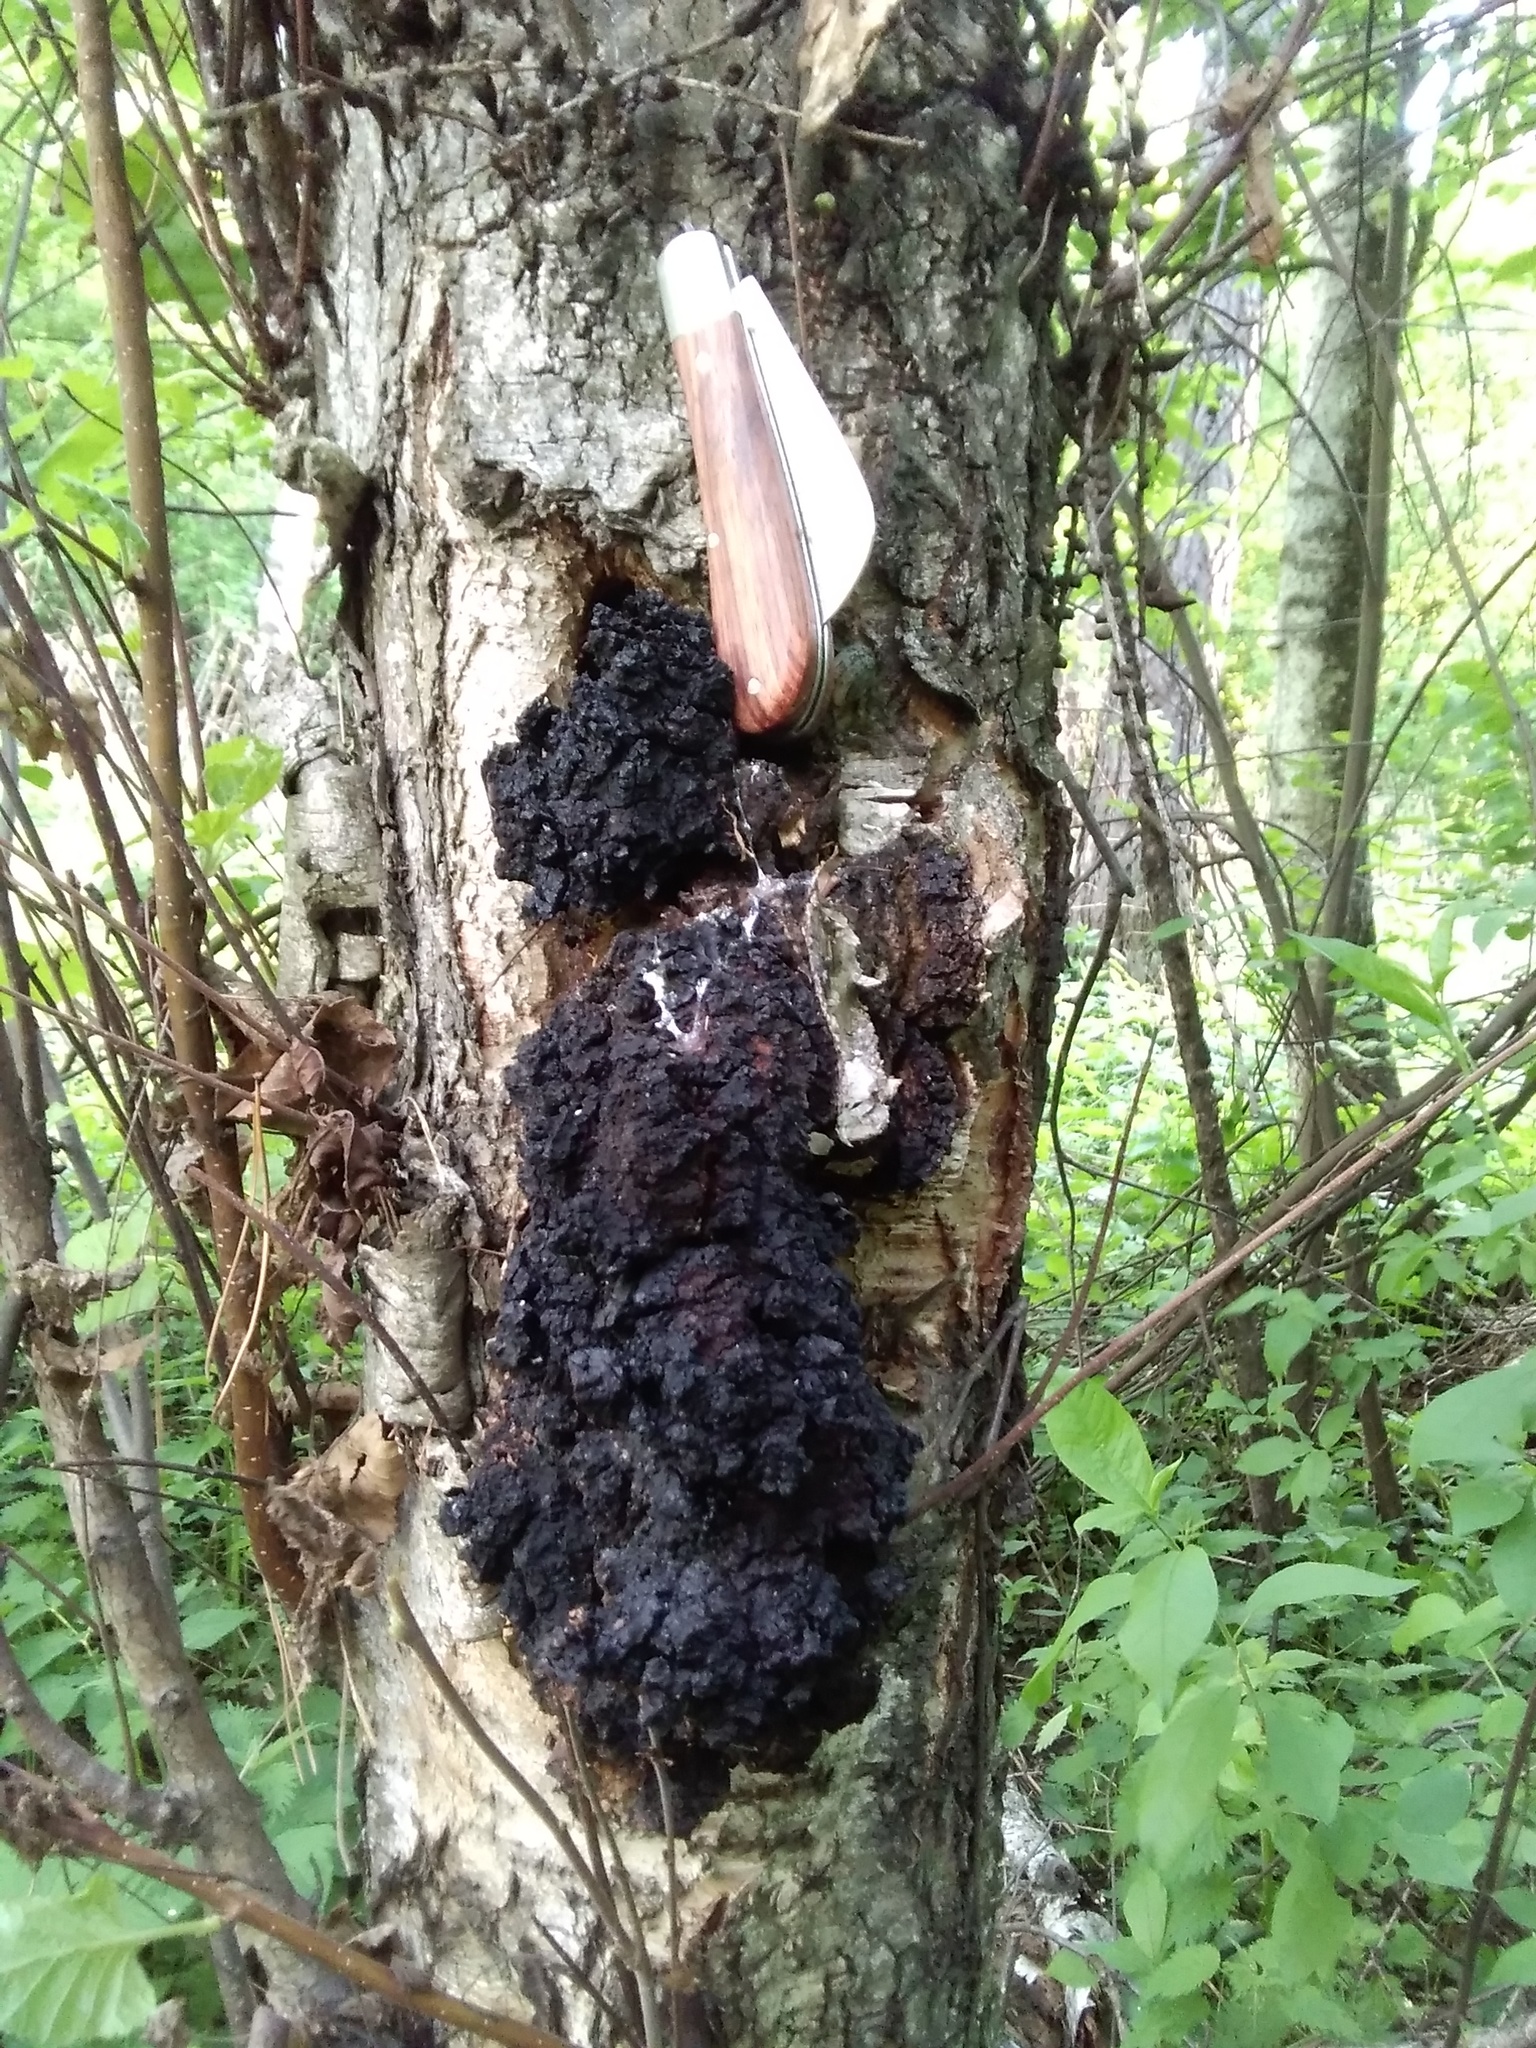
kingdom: Fungi
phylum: Basidiomycota
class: Agaricomycetes
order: Hymenochaetales
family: Hymenochaetaceae
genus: Inonotus
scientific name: Inonotus obliquus
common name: Chaga
